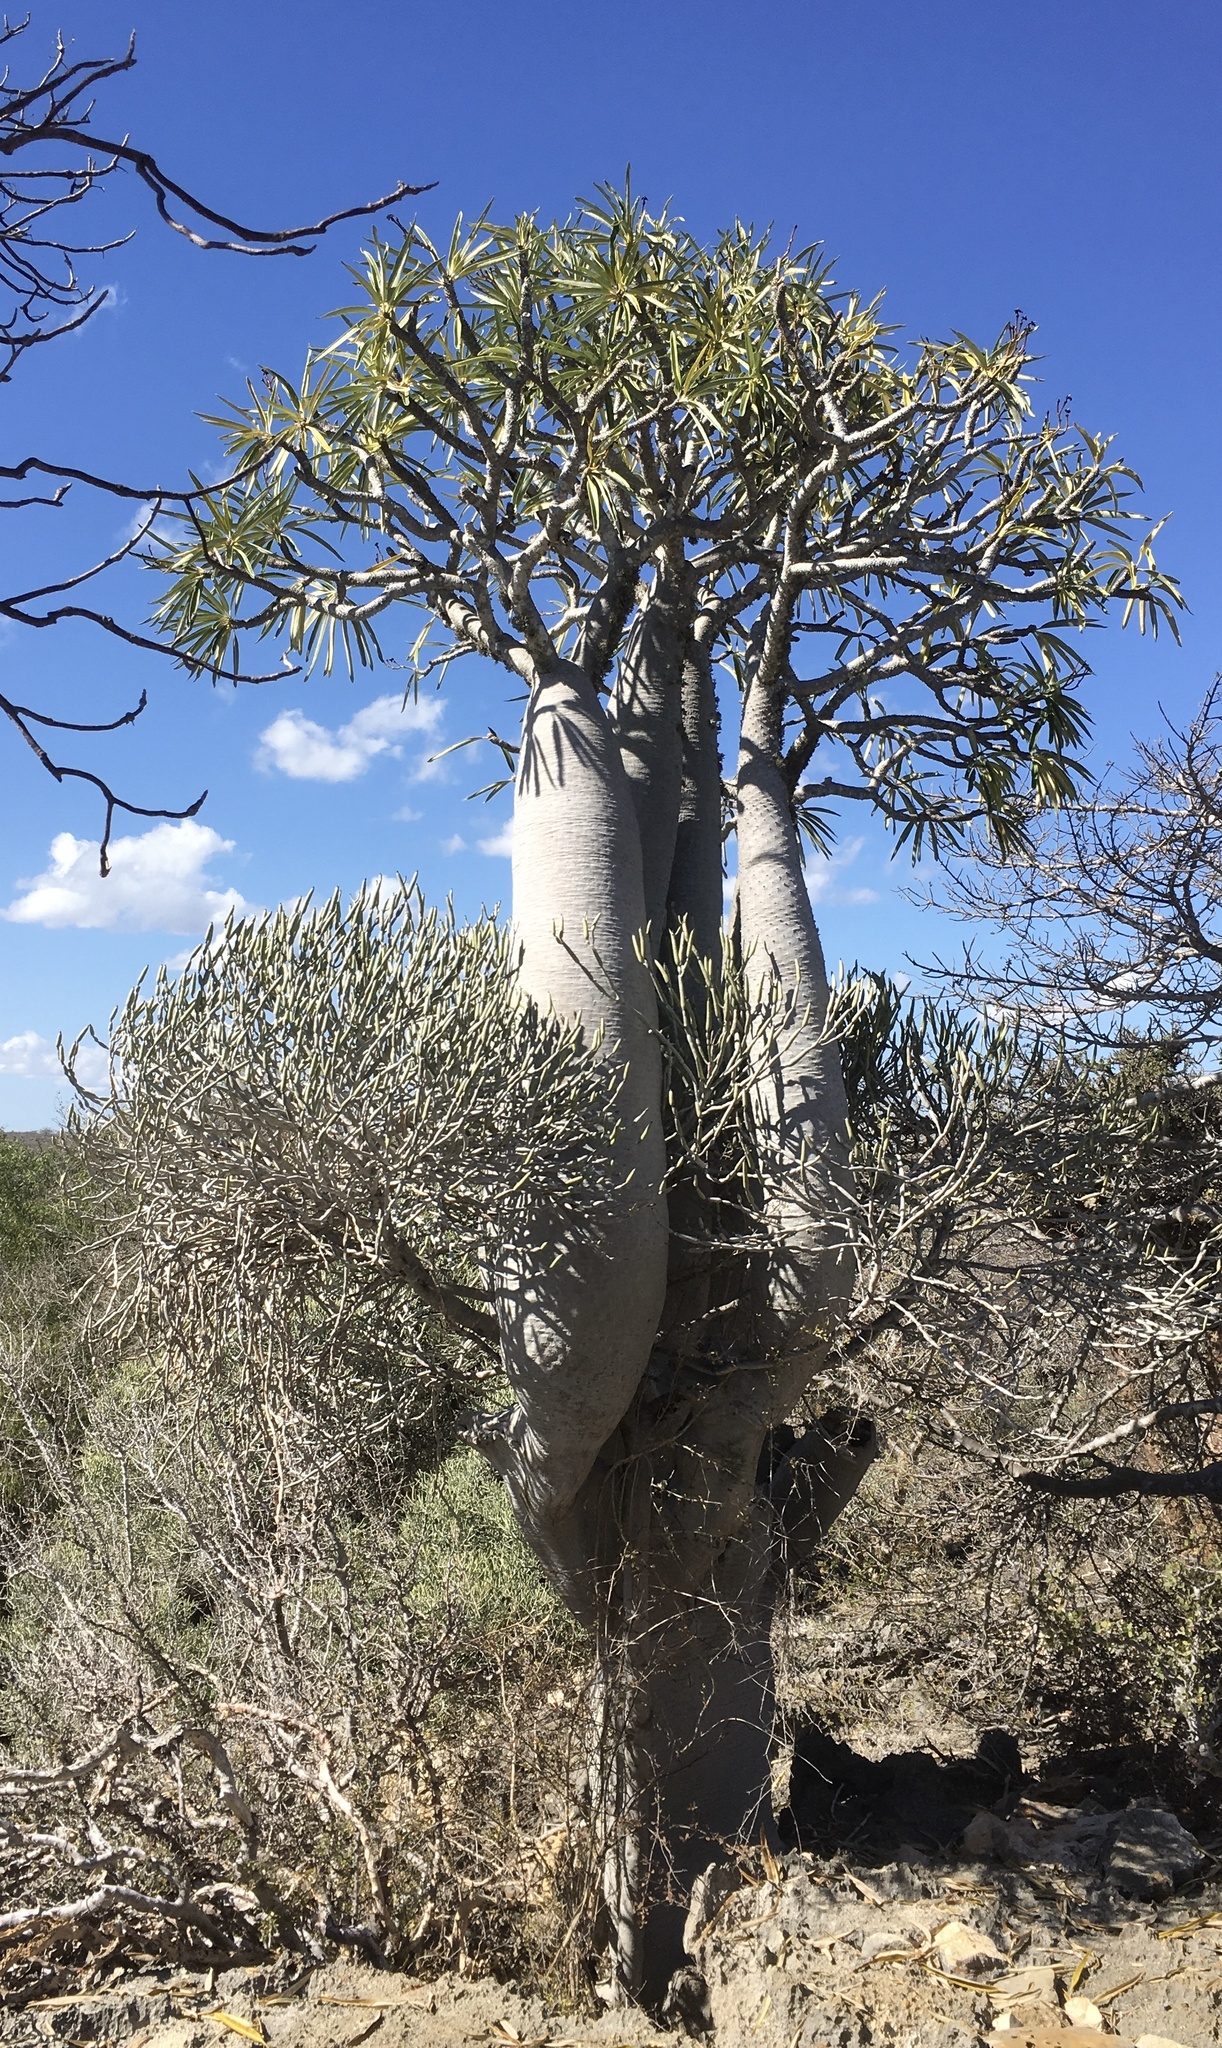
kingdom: Plantae
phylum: Tracheophyta
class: Magnoliopsida
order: Gentianales
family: Apocynaceae
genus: Pachypodium
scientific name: Pachypodium geayi
